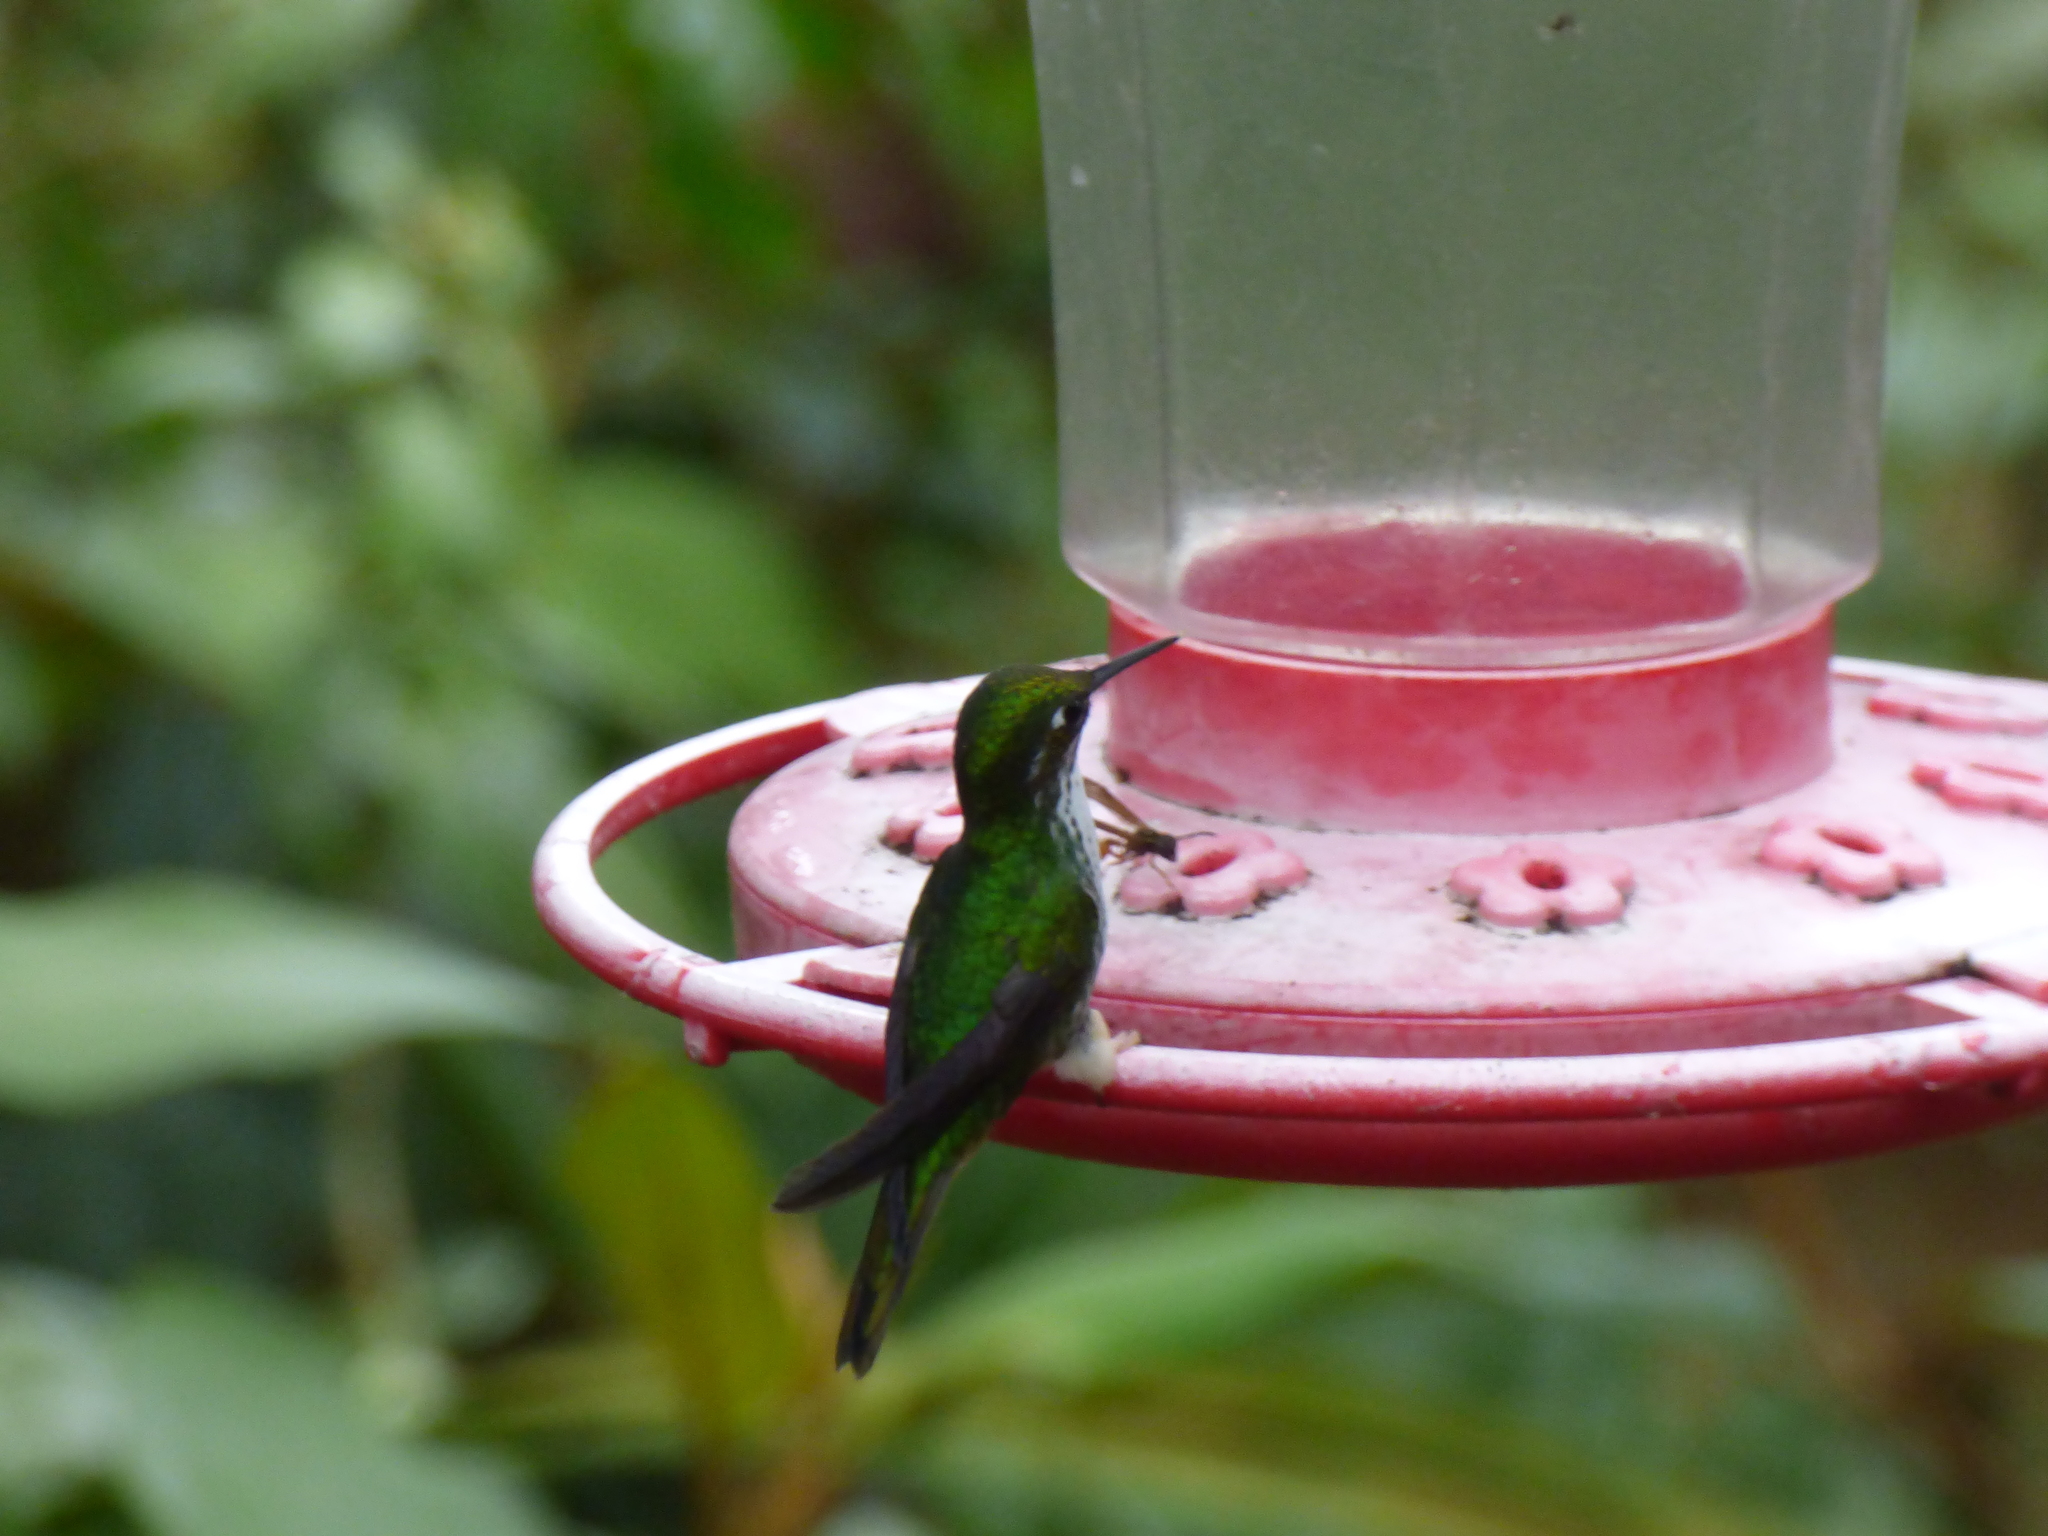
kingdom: Animalia
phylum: Chordata
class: Aves
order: Apodiformes
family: Trochilidae
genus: Ocreatus
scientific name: Ocreatus underwoodii
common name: Booted racket-tail
